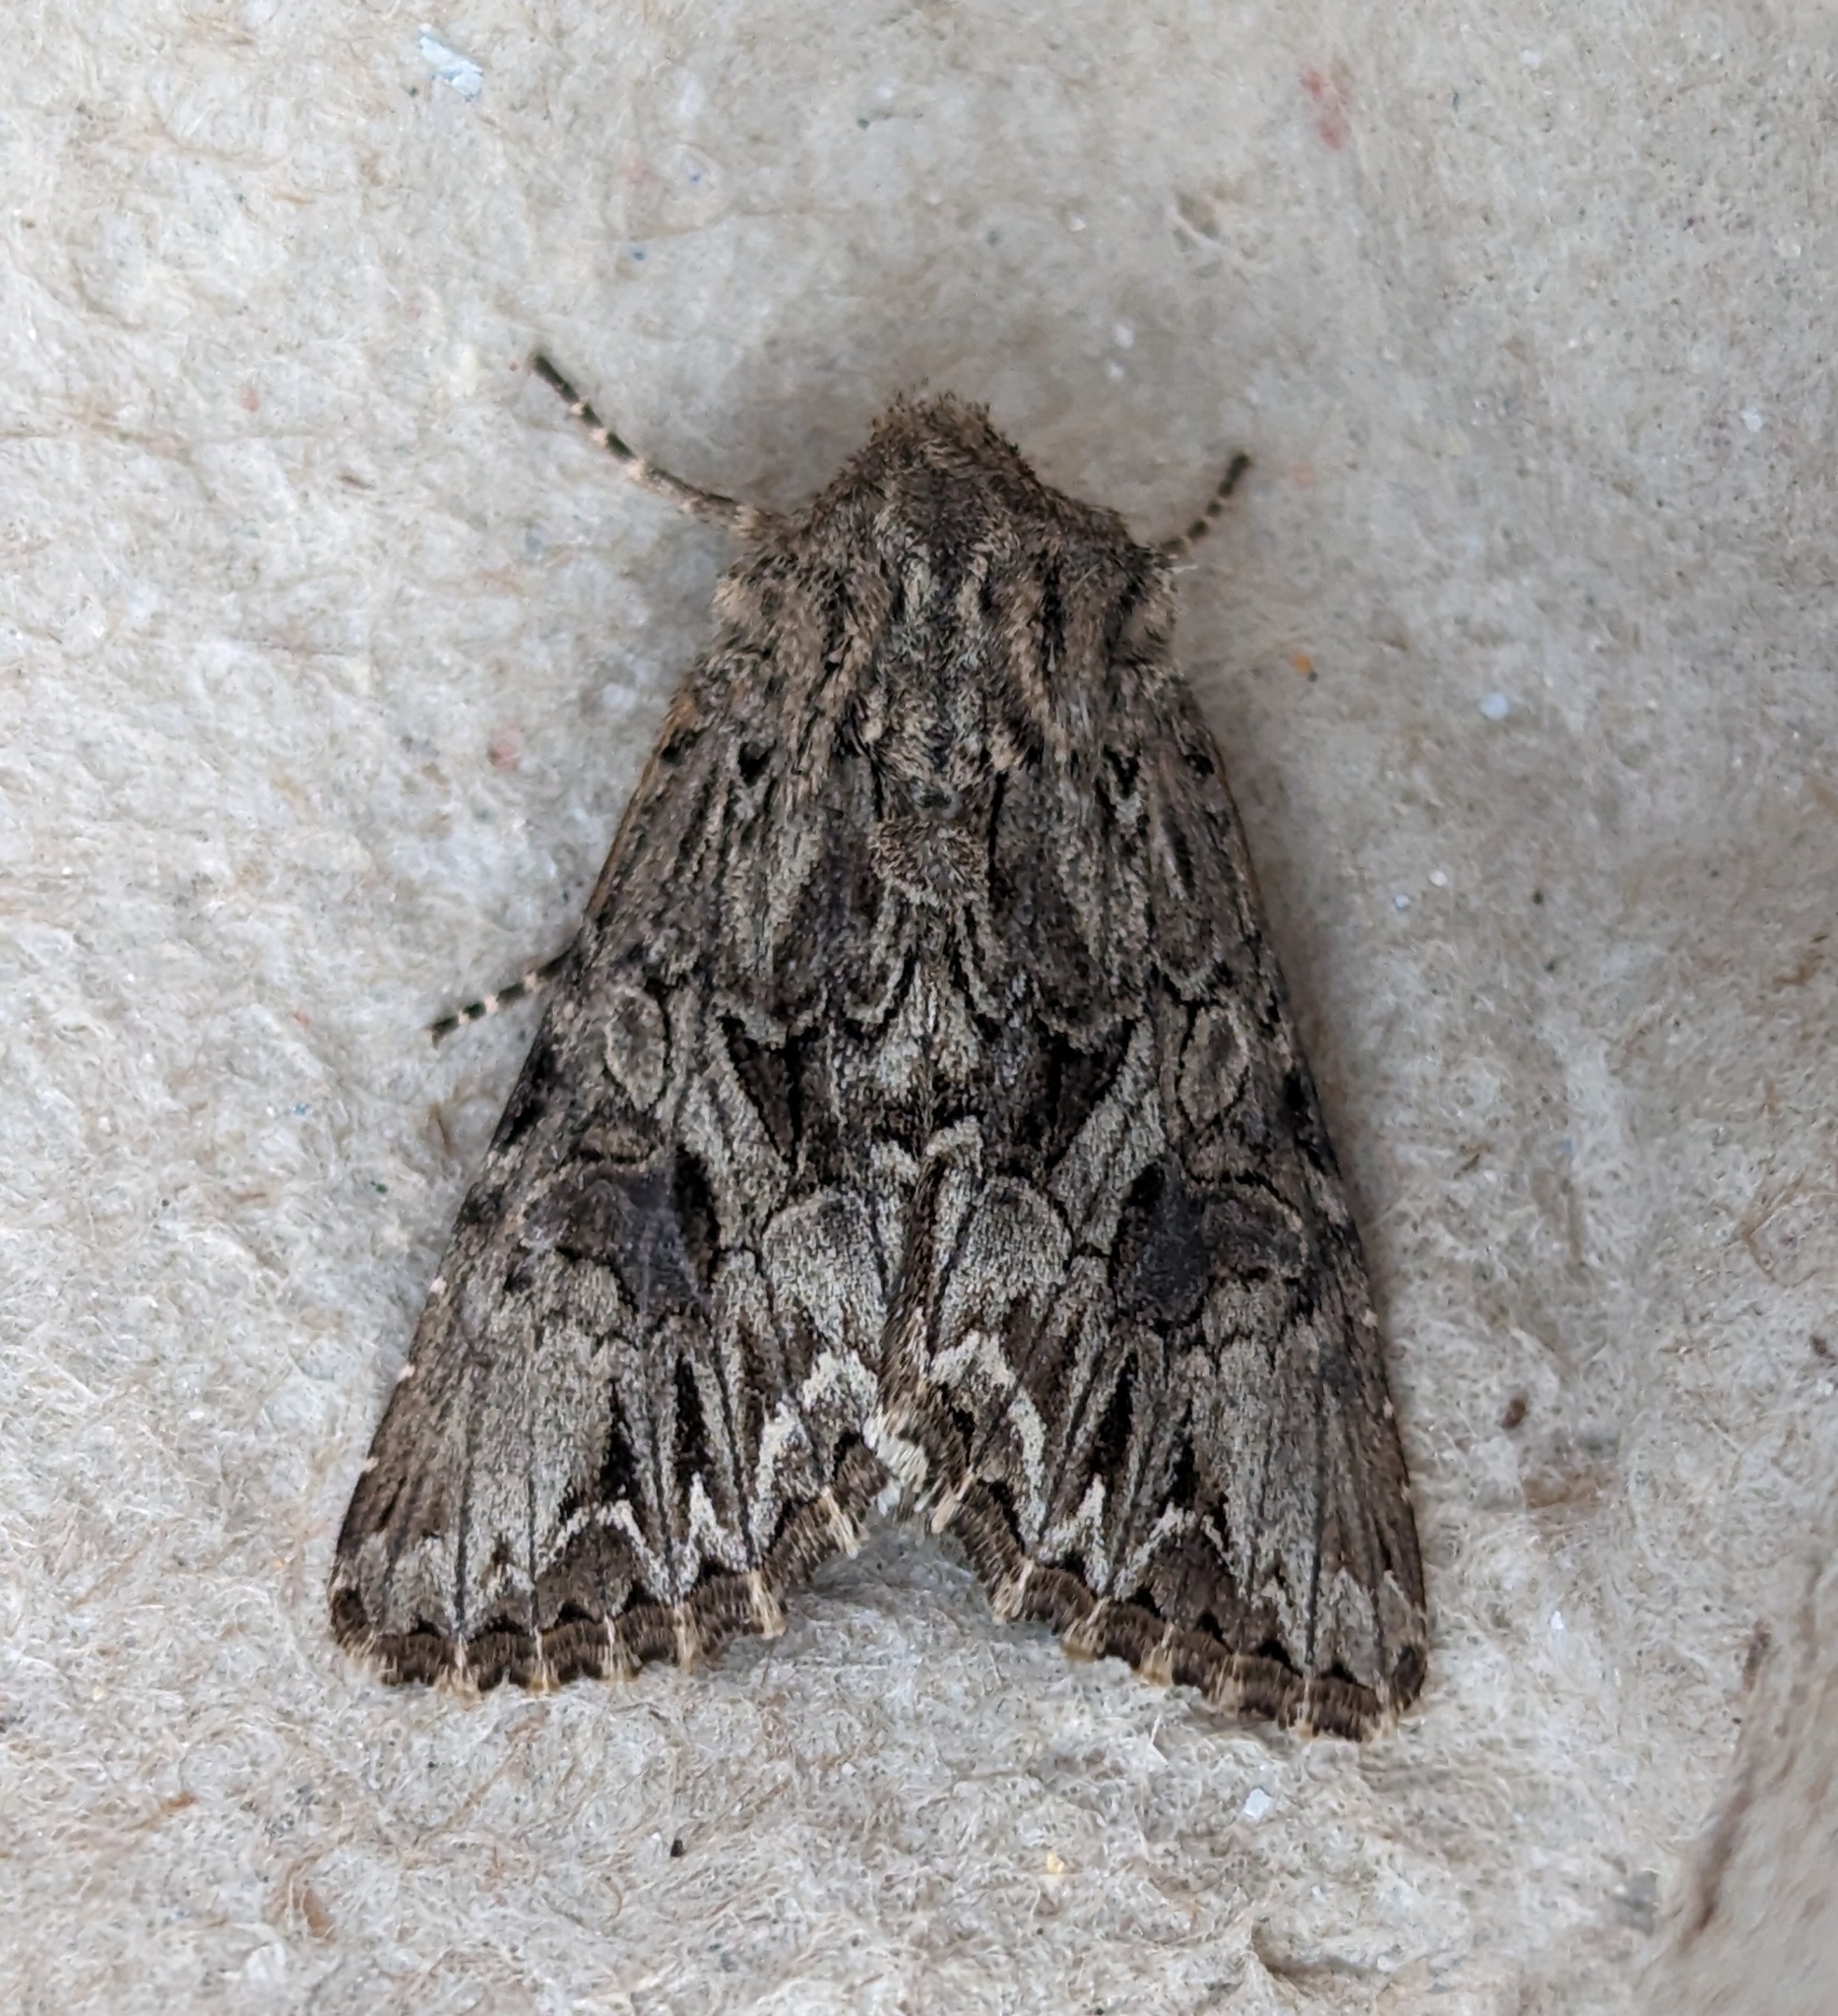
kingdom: Animalia
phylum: Arthropoda
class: Insecta
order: Lepidoptera
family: Noctuidae
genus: Anarta
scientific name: Anarta crotchii
